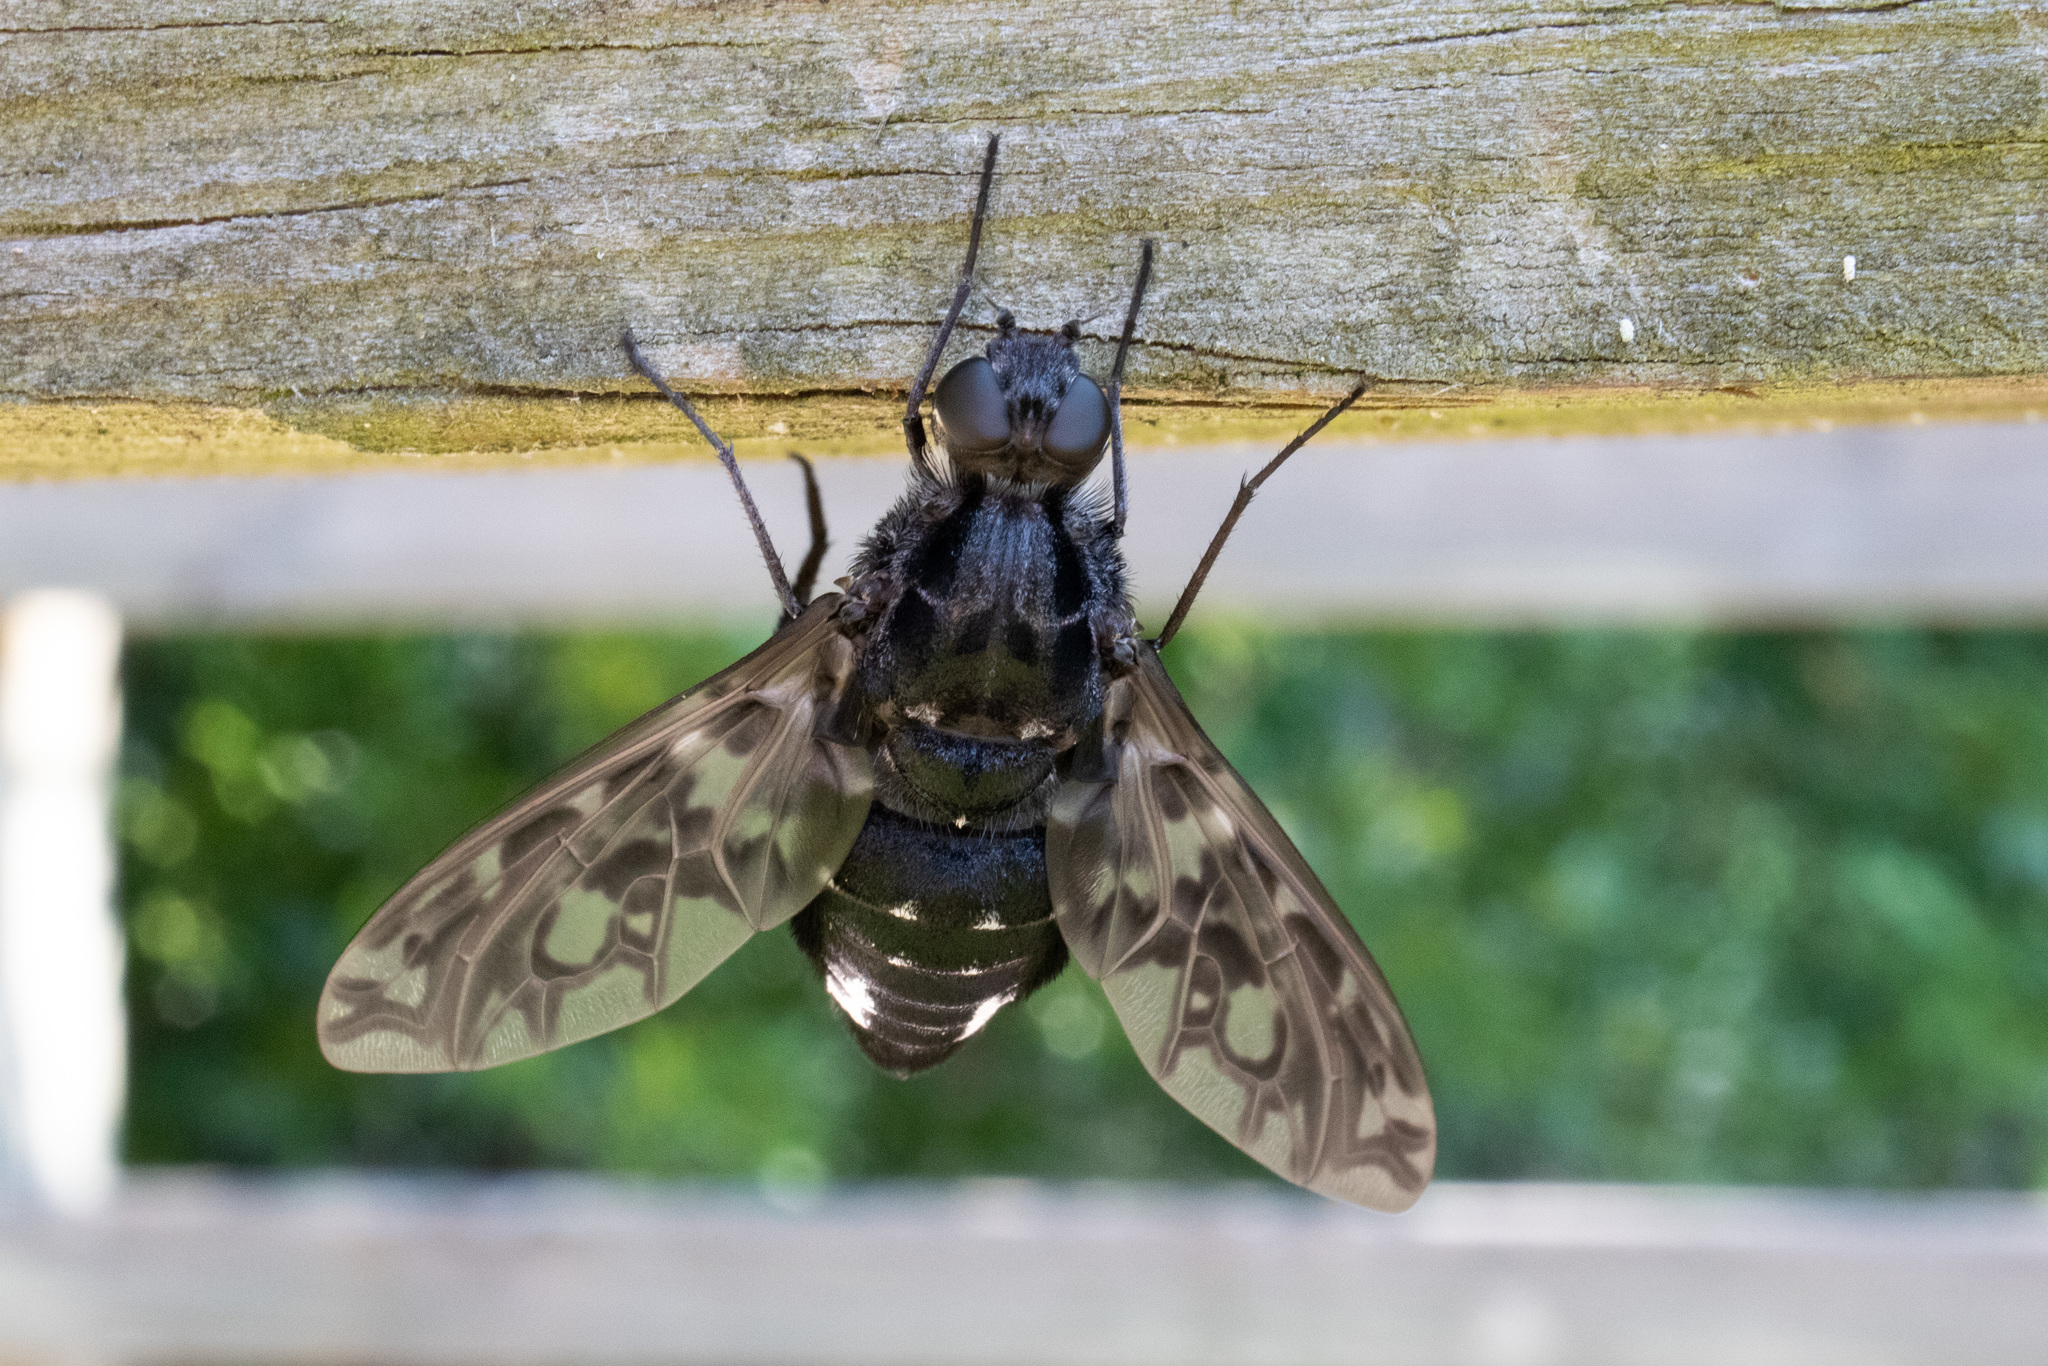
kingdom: Animalia
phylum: Arthropoda
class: Insecta
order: Diptera
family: Bombyliidae
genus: Xenox
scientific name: Xenox tigrinus
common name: Tiger bee fly
